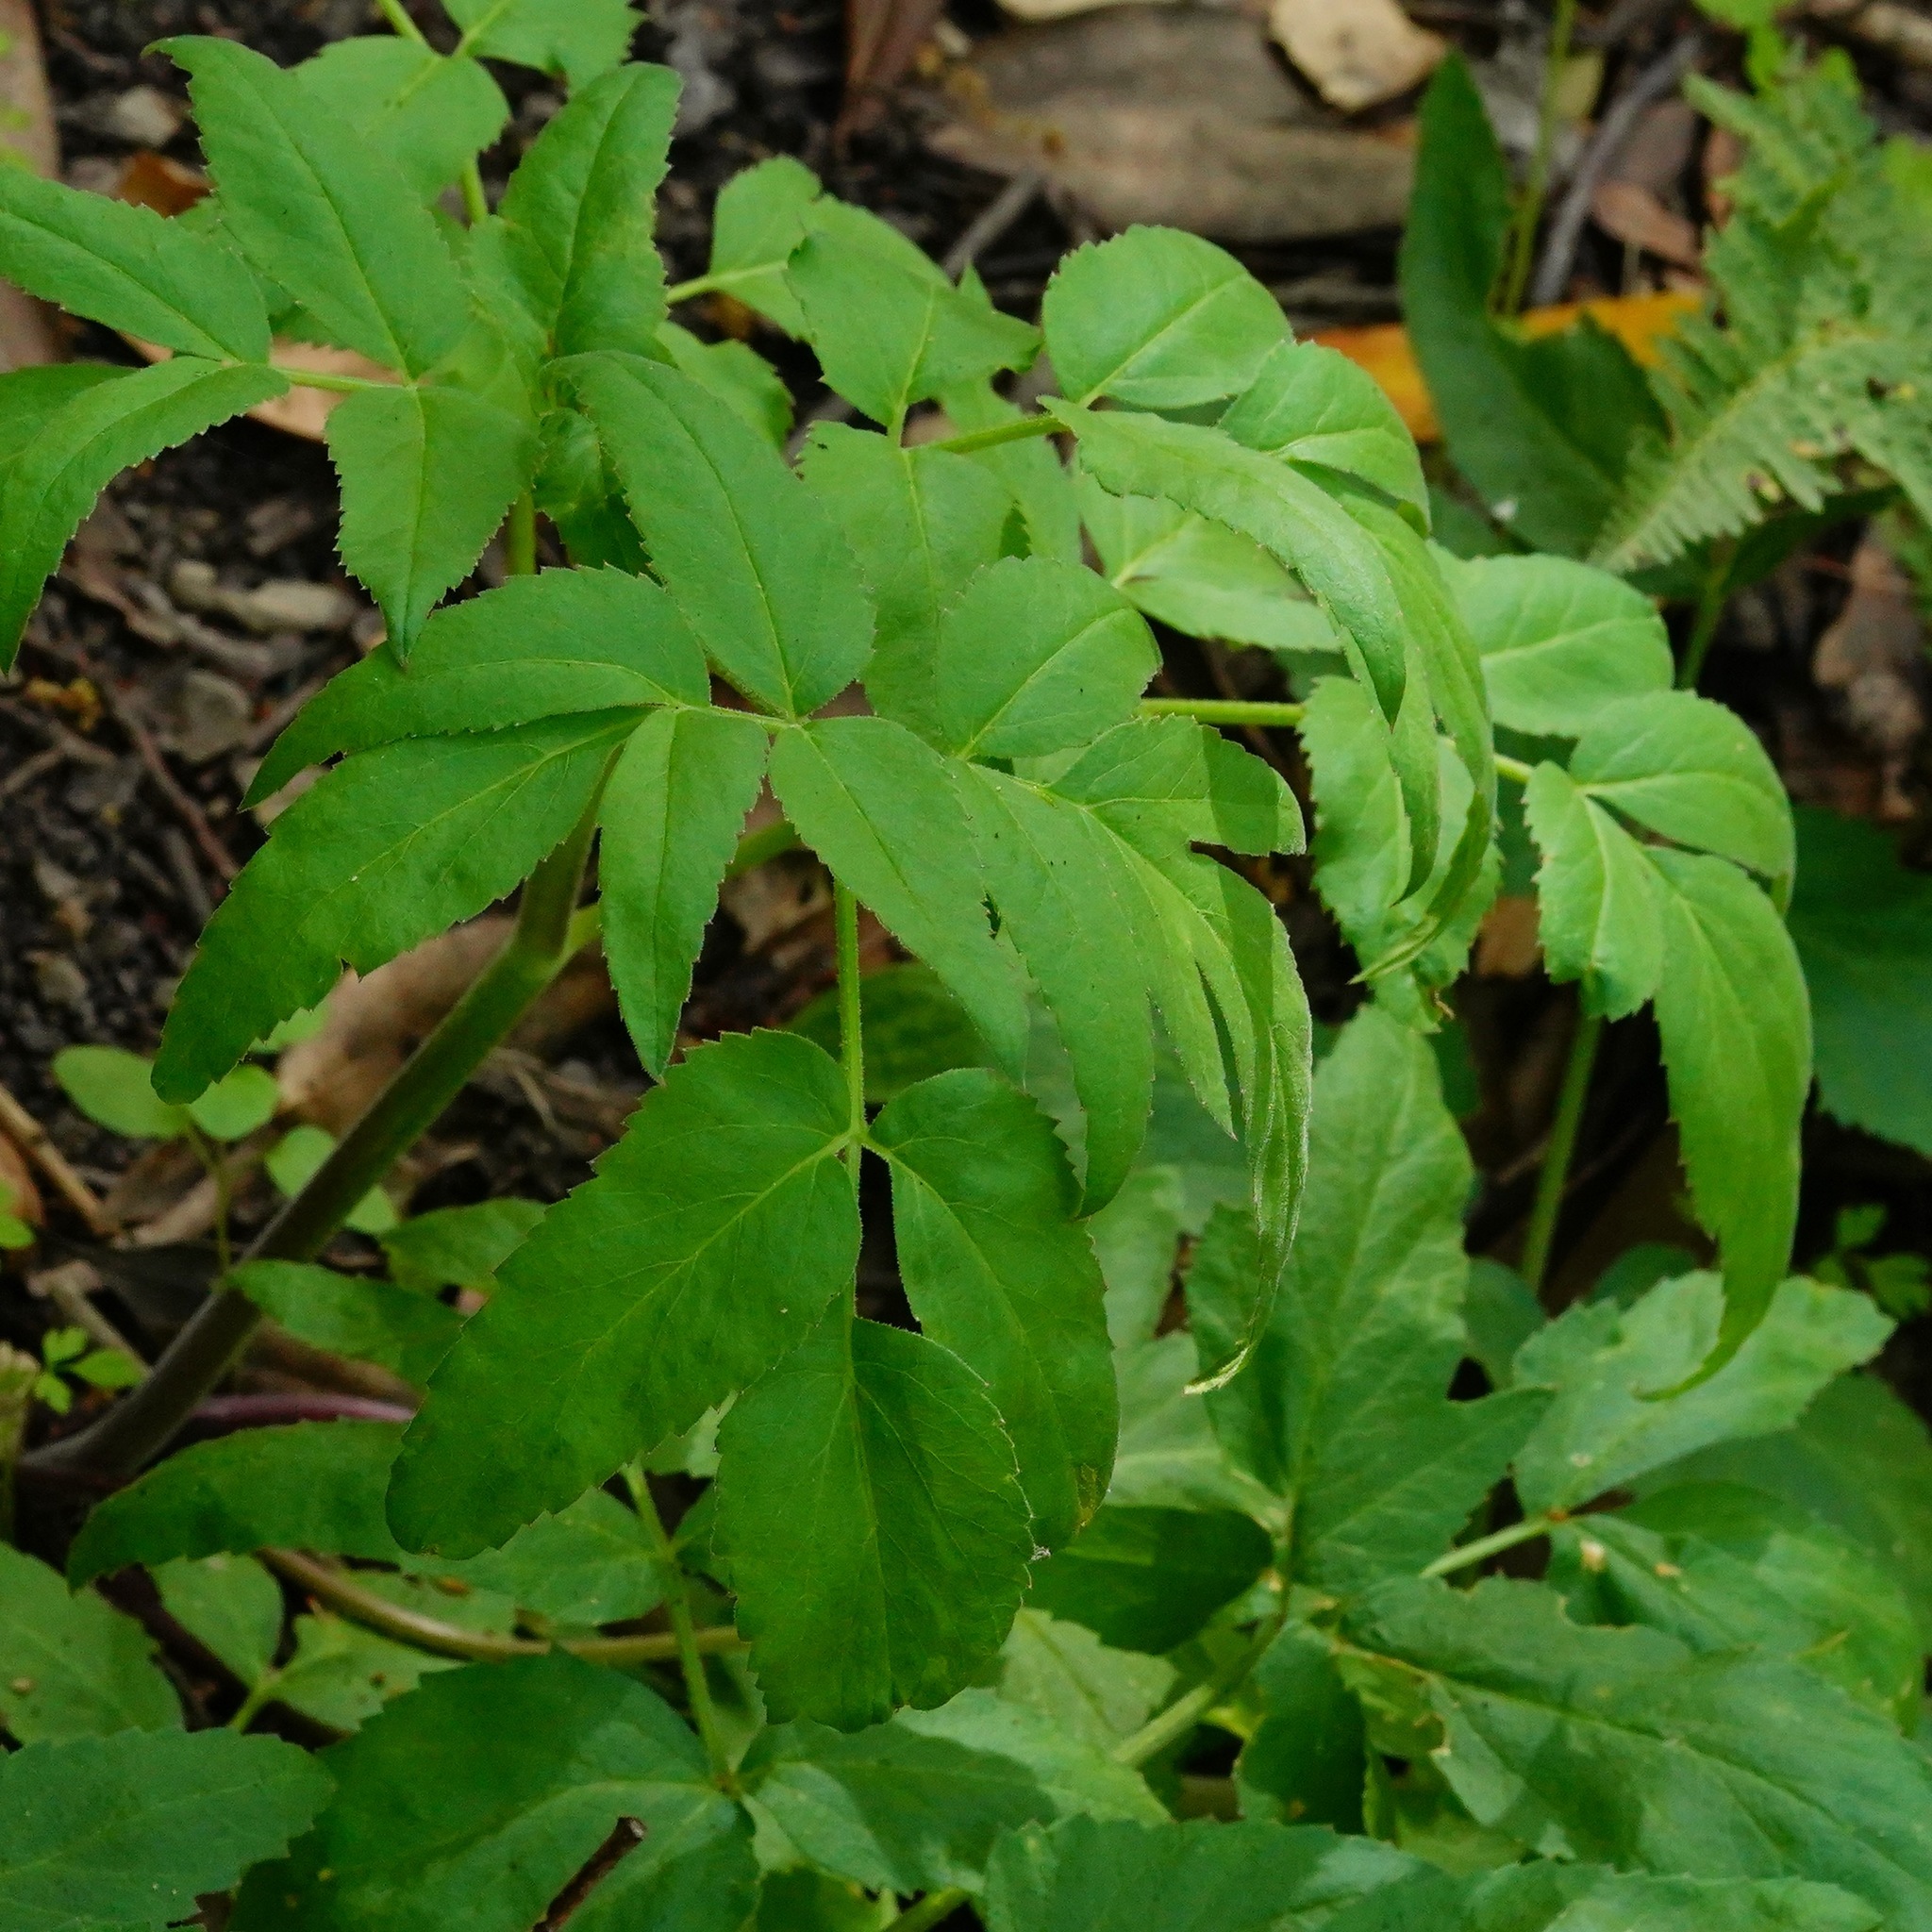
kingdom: Plantae
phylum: Tracheophyta
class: Magnoliopsida
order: Apiales
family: Apiaceae
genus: Angelica
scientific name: Angelica californica
